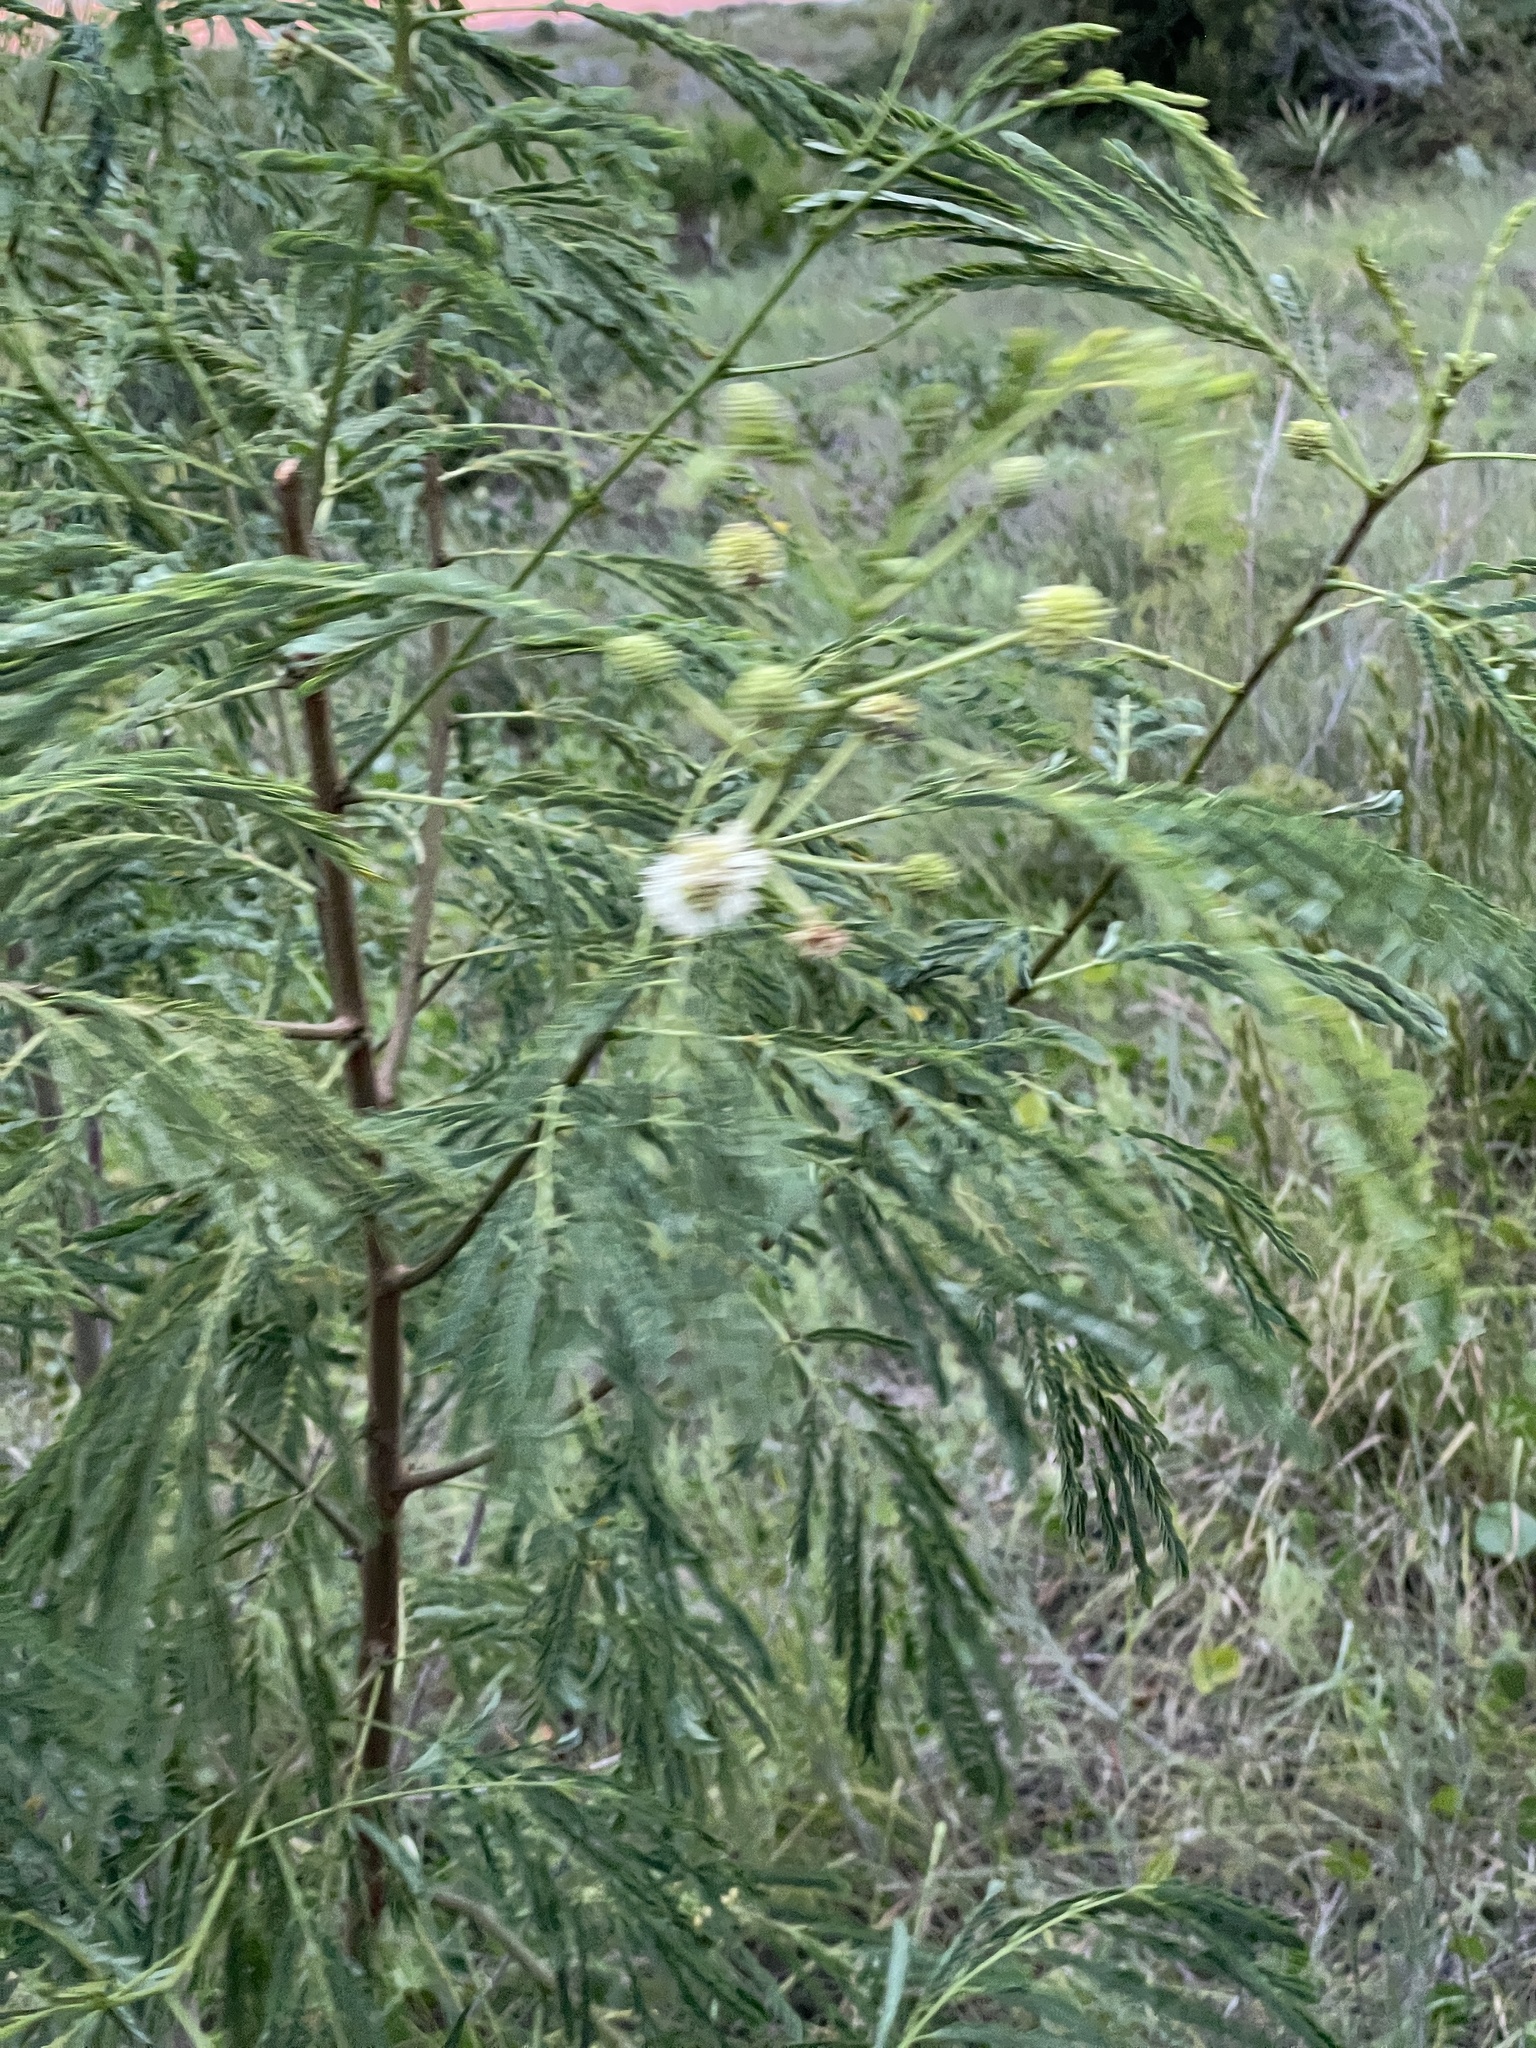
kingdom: Plantae
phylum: Tracheophyta
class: Magnoliopsida
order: Fabales
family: Fabaceae
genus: Leucaena
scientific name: Leucaena leucocephala
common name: White leadtree
